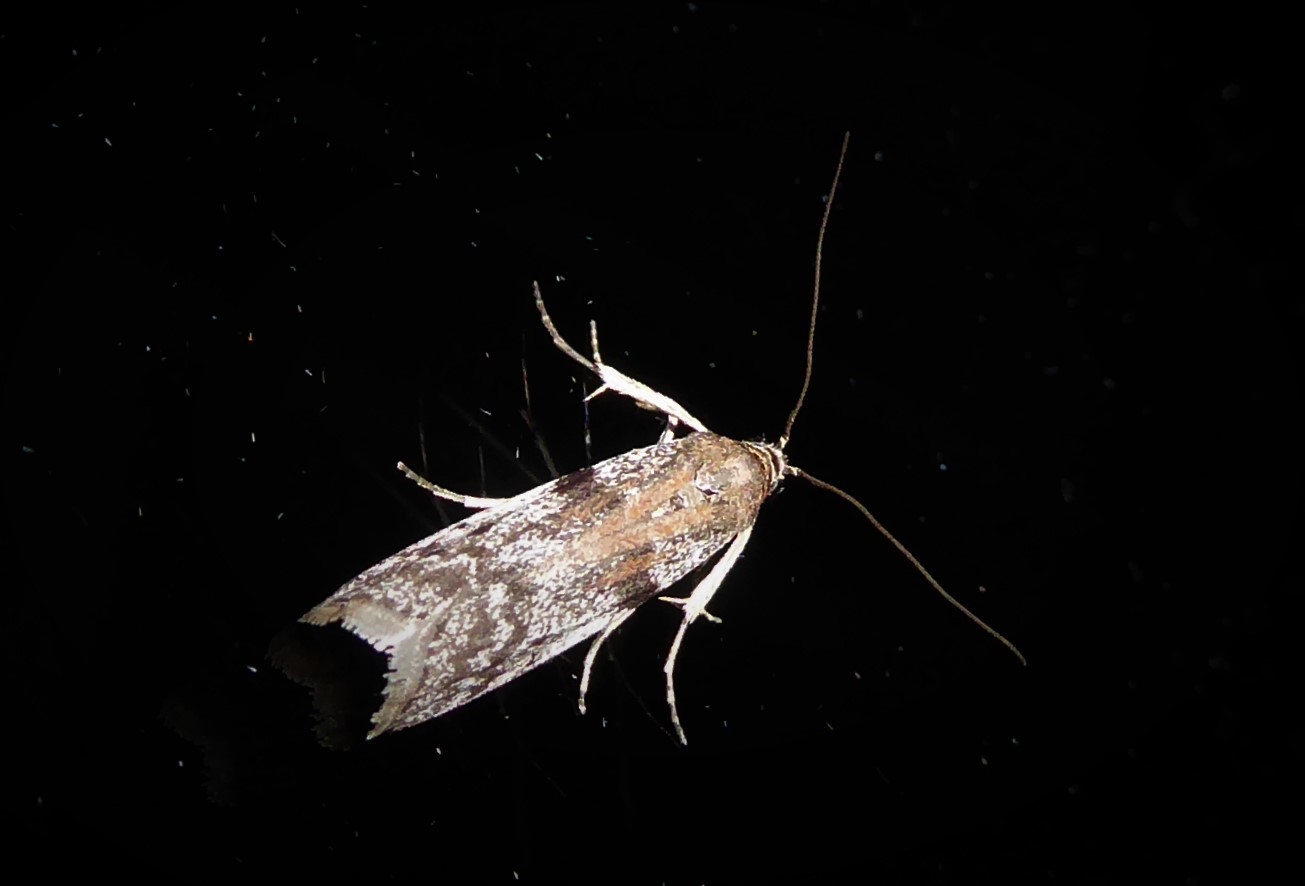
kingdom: Animalia
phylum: Arthropoda
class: Insecta
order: Lepidoptera
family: Pyralidae
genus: Patagoniodes
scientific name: Patagoniodes farinaria
